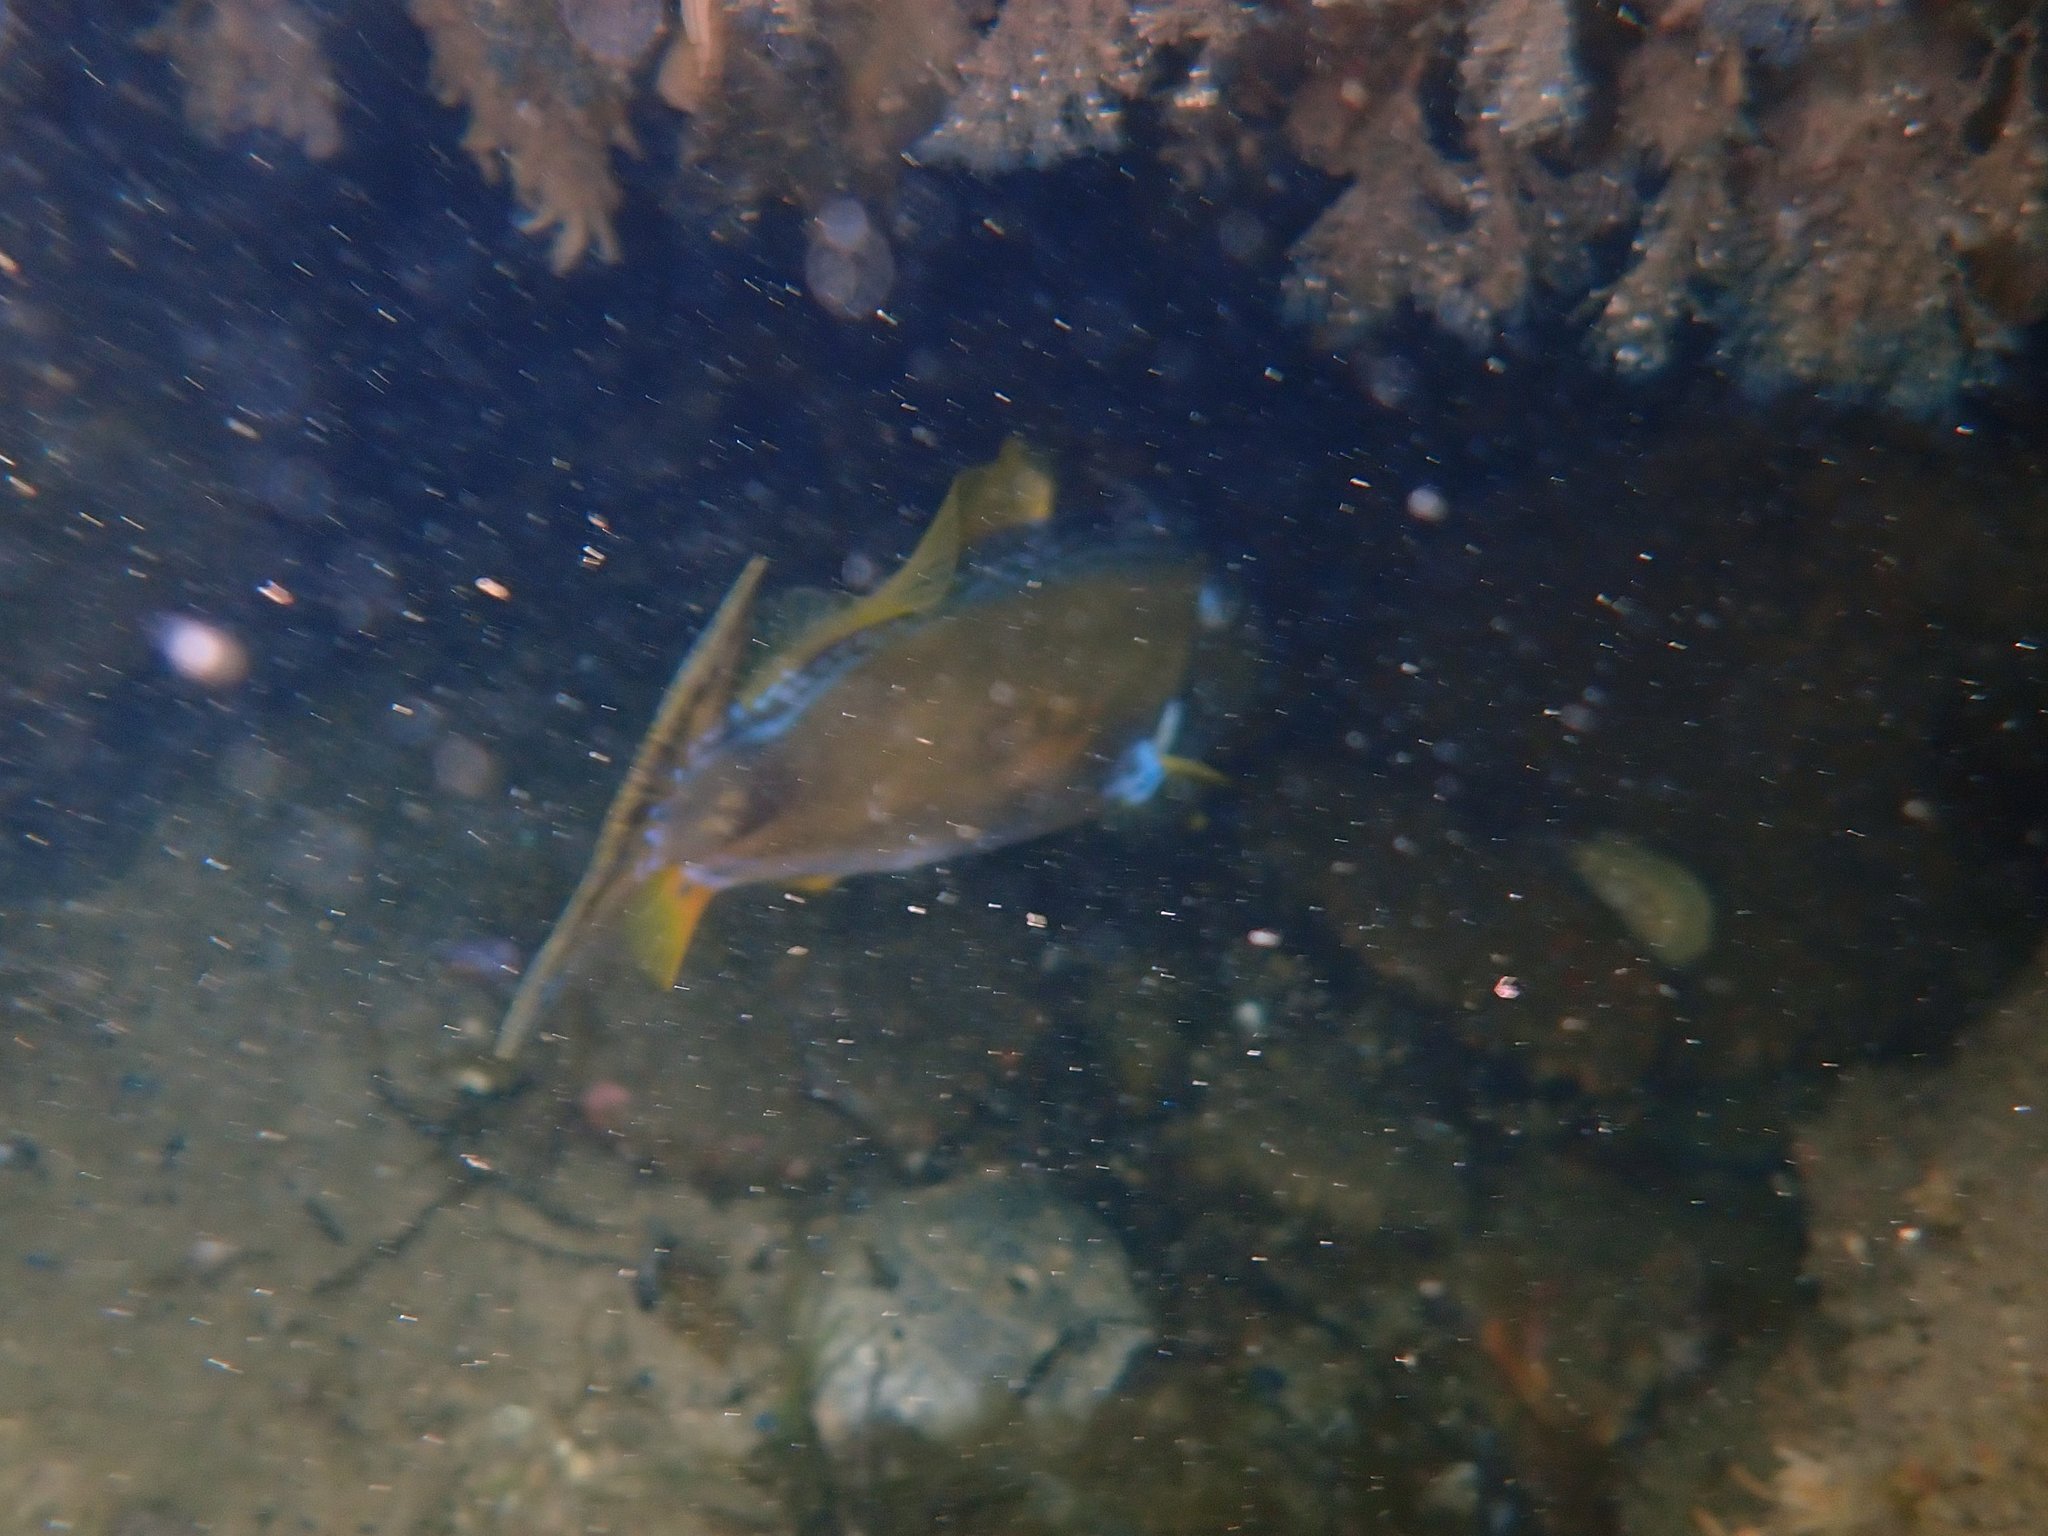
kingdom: Animalia
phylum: Chordata
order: Tetraodontiformes
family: Monacanthidae
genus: Meuschenia
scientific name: Meuschenia freycineti
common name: Freycinet's leatherjacket
